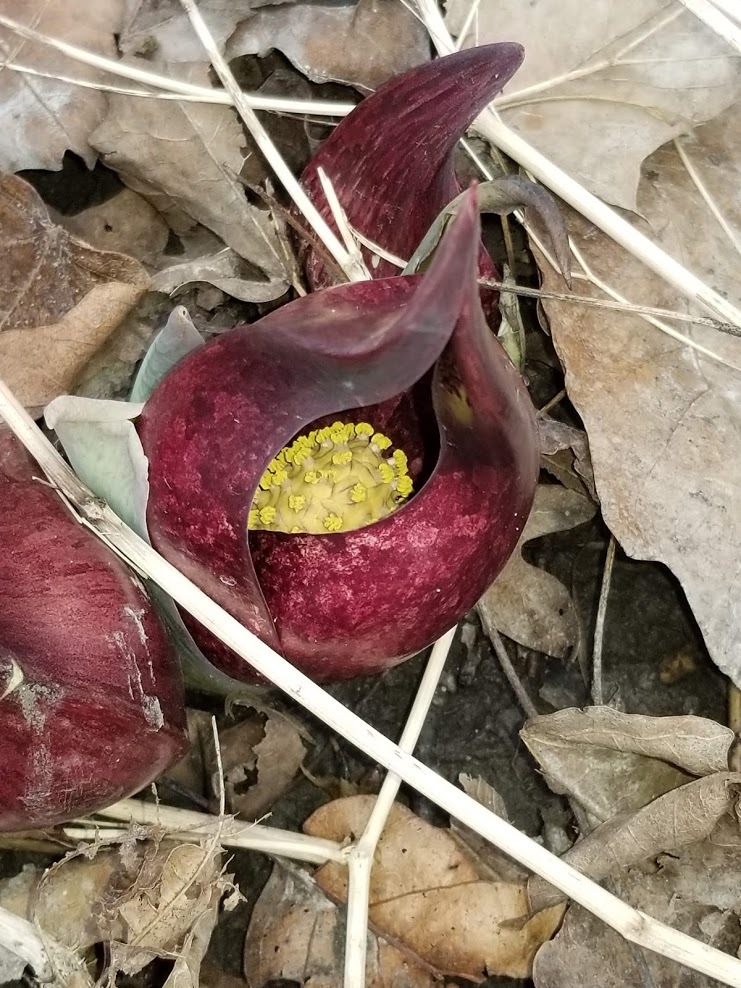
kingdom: Plantae
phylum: Tracheophyta
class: Liliopsida
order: Alismatales
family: Araceae
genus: Symplocarpus
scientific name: Symplocarpus foetidus
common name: Eastern skunk cabbage
